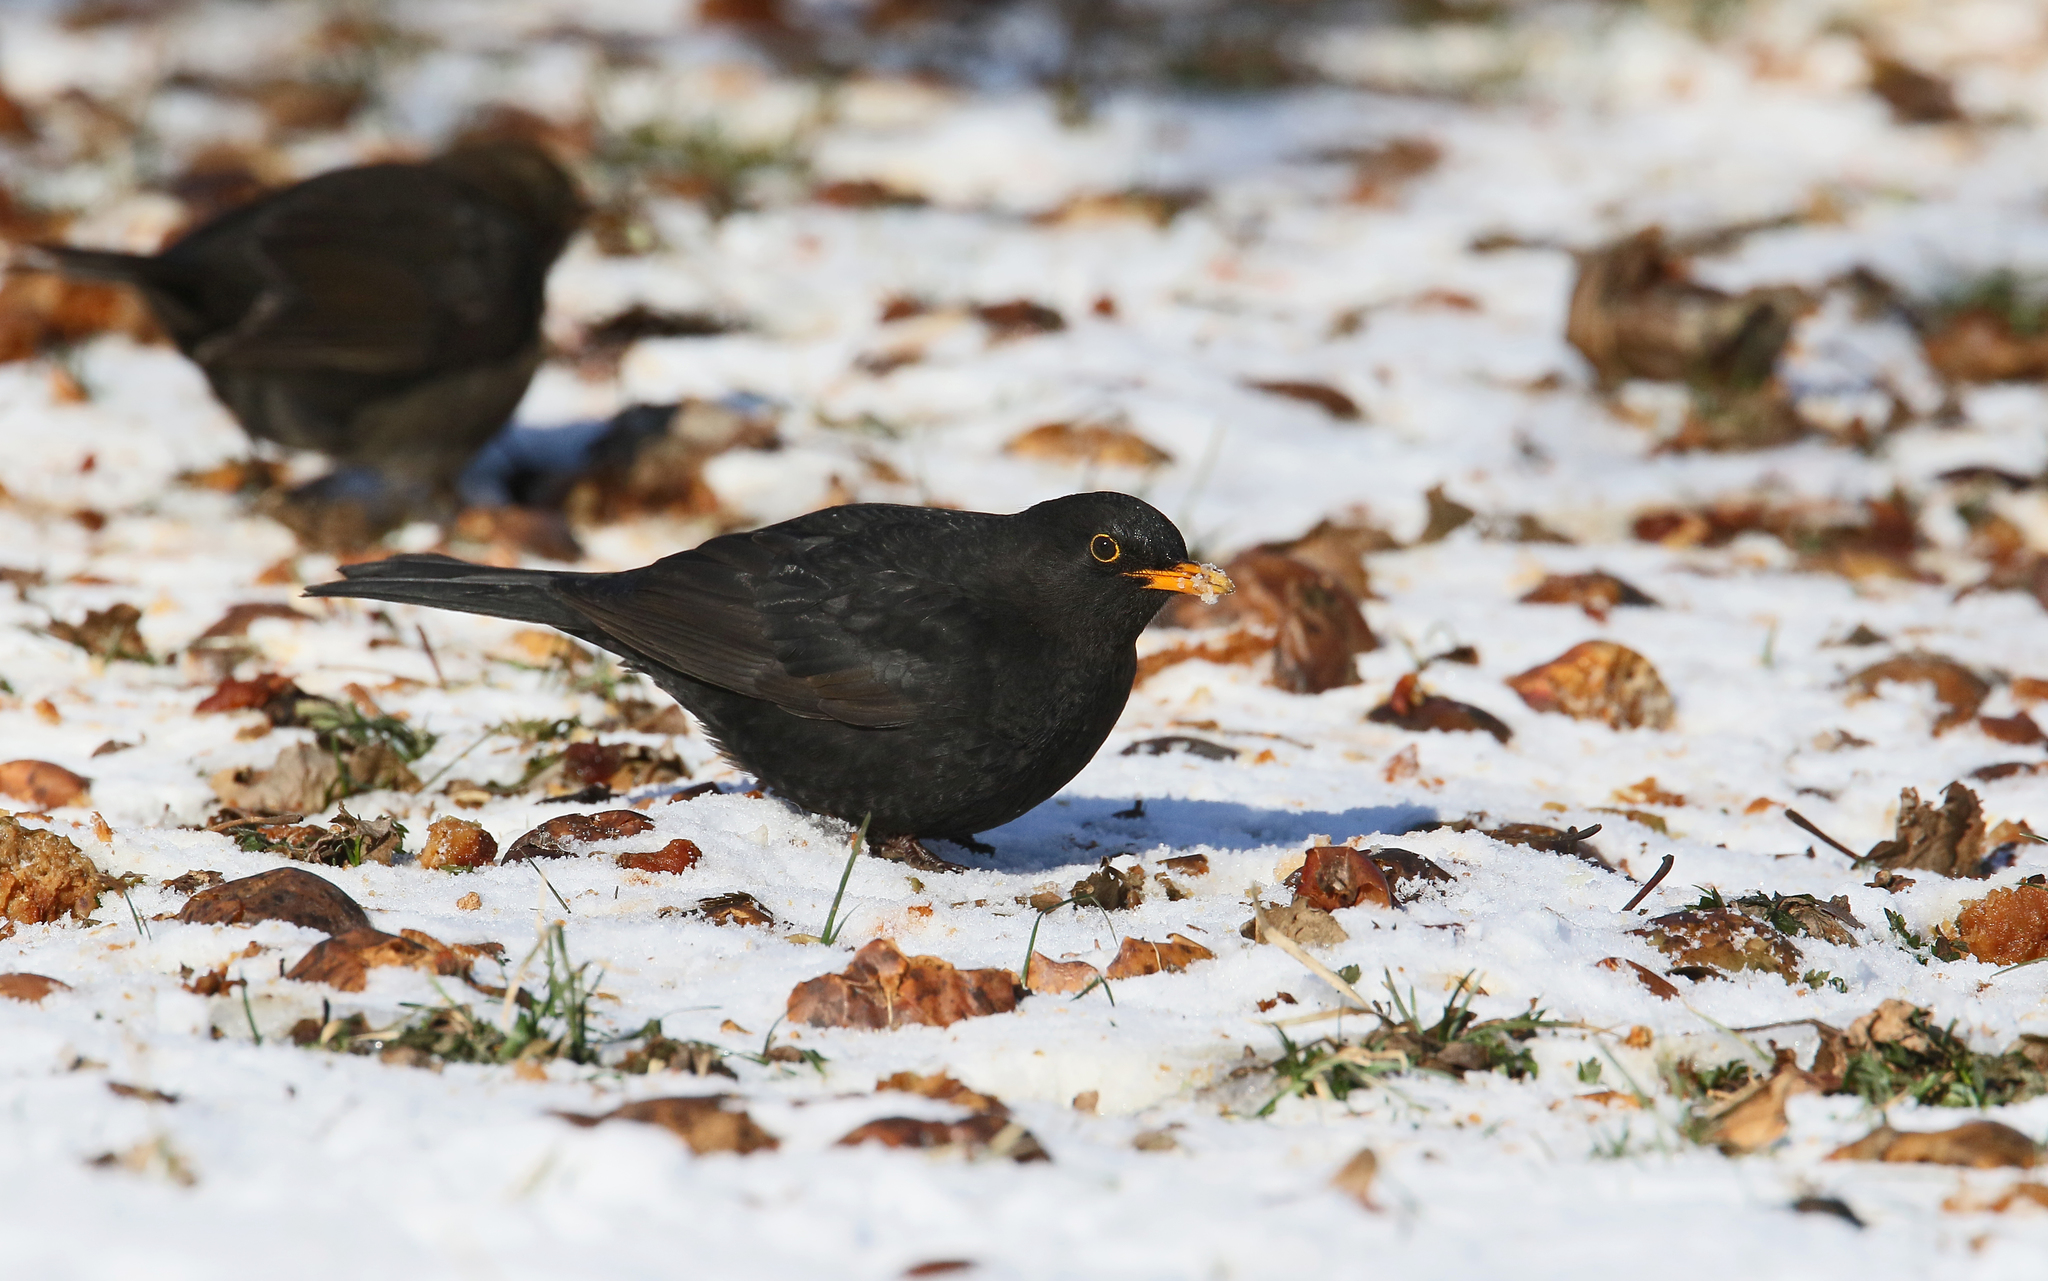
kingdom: Animalia
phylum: Chordata
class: Aves
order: Passeriformes
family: Turdidae
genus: Turdus
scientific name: Turdus merula
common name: Common blackbird
